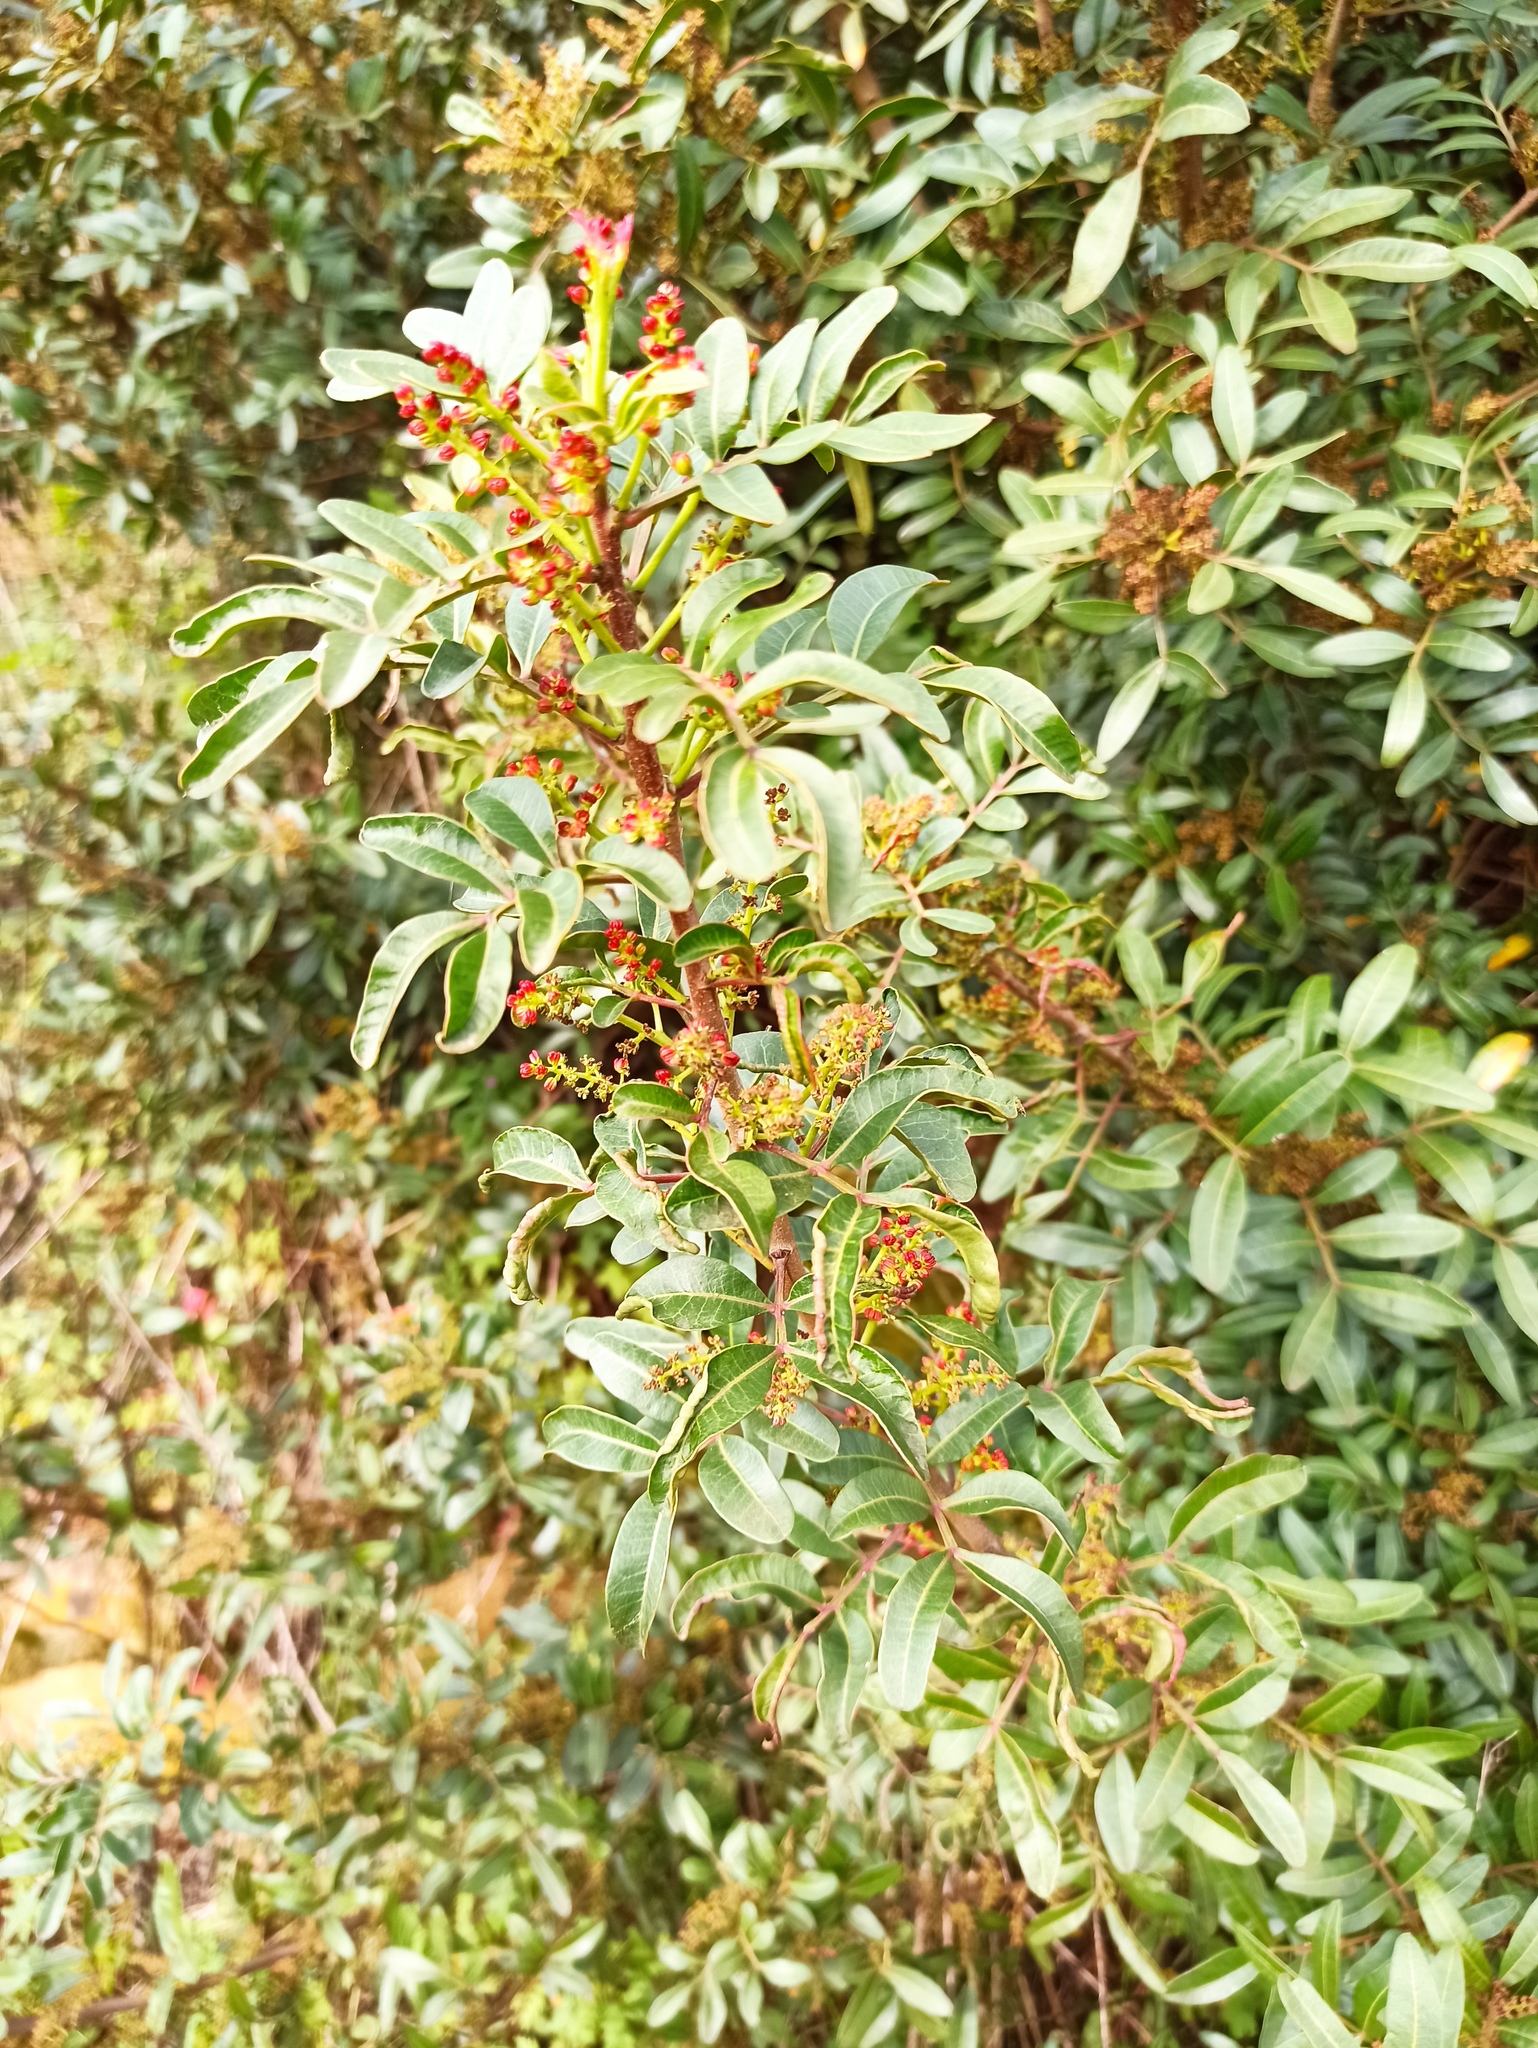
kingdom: Plantae
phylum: Tracheophyta
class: Magnoliopsida
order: Sapindales
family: Anacardiaceae
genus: Pistacia
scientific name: Pistacia lentiscus
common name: Lentisk
